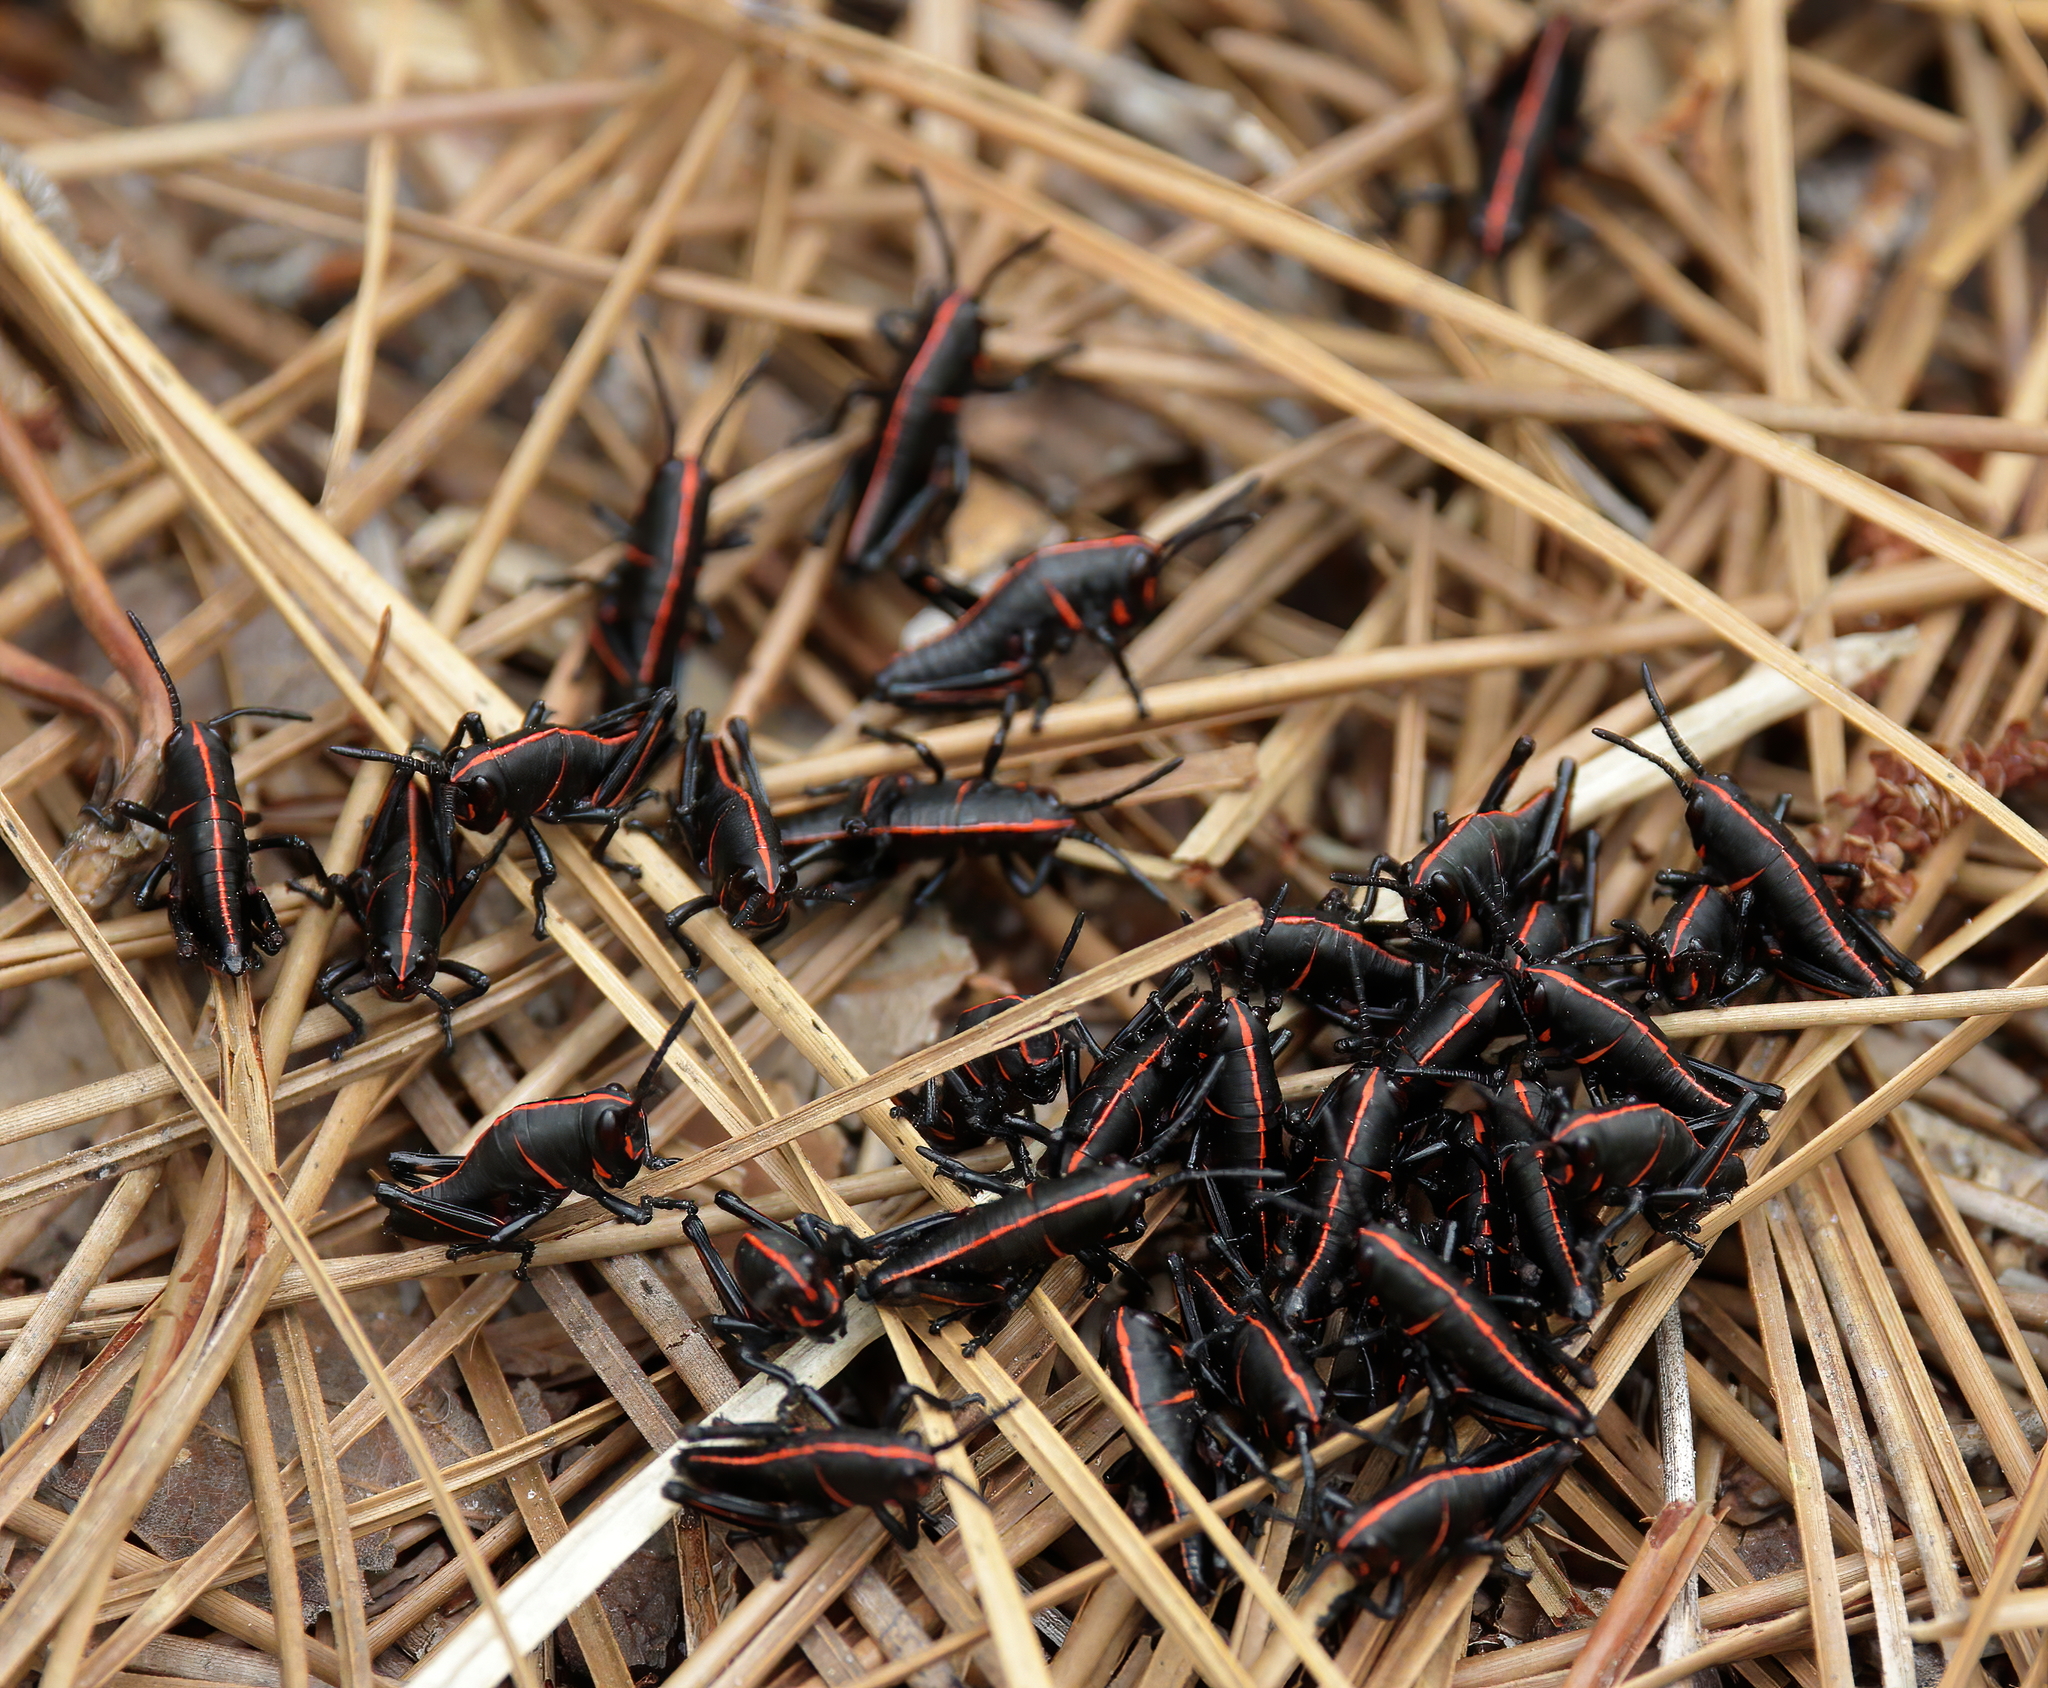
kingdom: Animalia
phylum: Arthropoda
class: Insecta
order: Orthoptera
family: Romaleidae
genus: Romalea
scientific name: Romalea microptera
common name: Eastern lubber grasshopper
